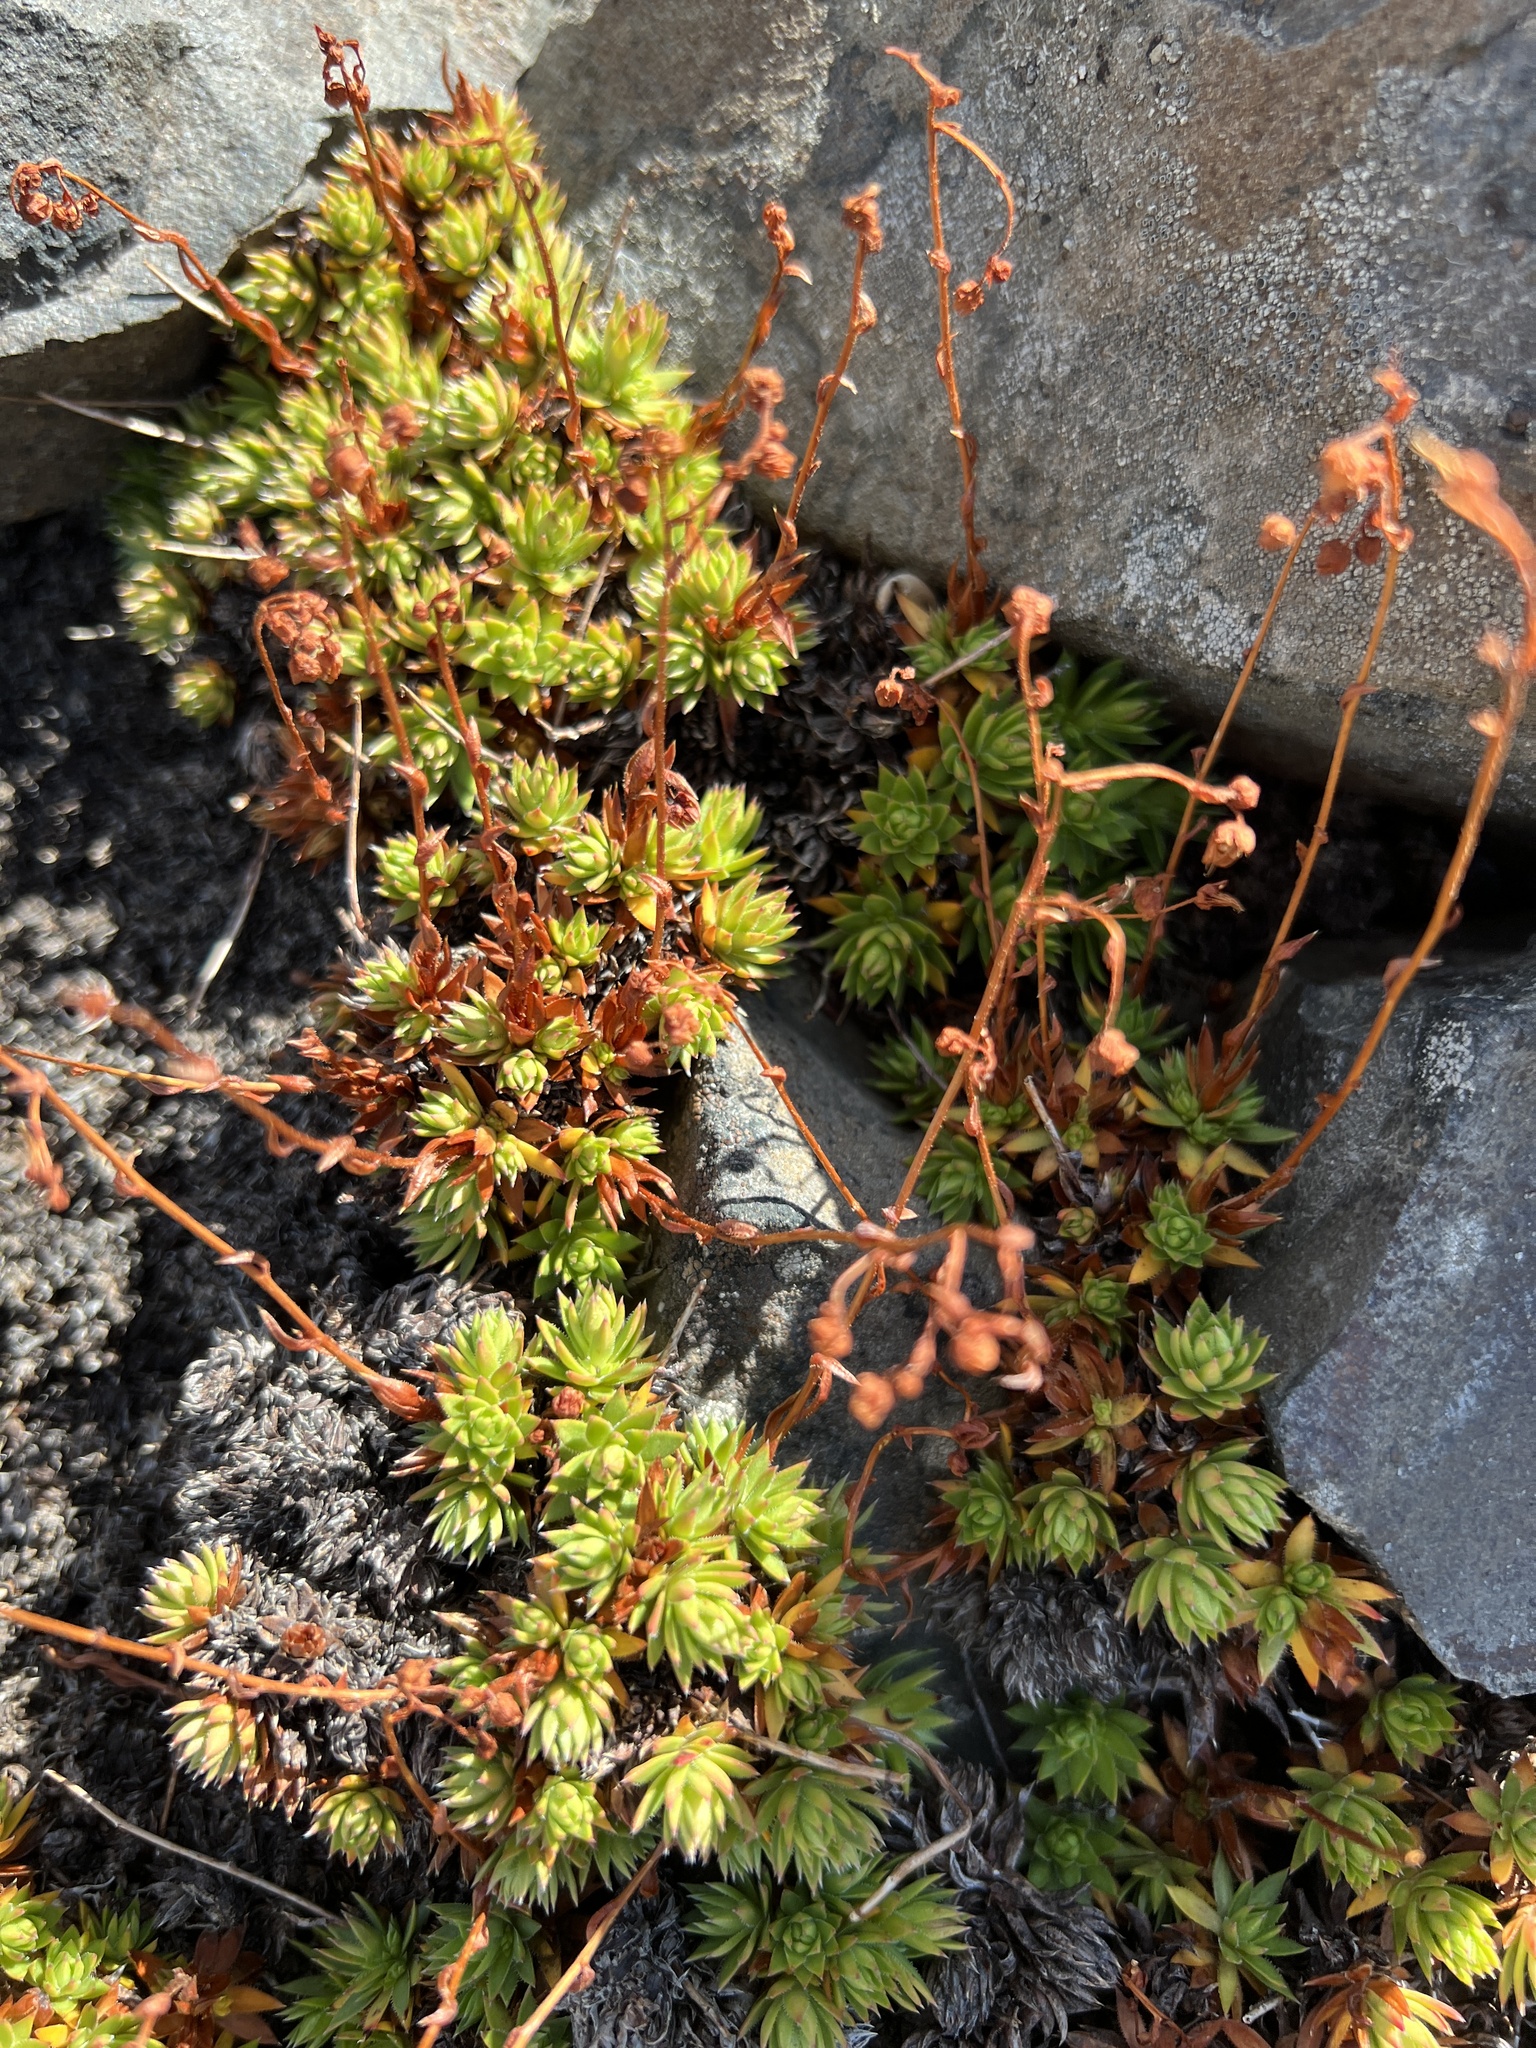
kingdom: Plantae
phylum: Tracheophyta
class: Magnoliopsida
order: Saxifragales
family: Saxifragaceae
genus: Saxifraga
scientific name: Saxifraga bronchialis
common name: Matted saxifrage
